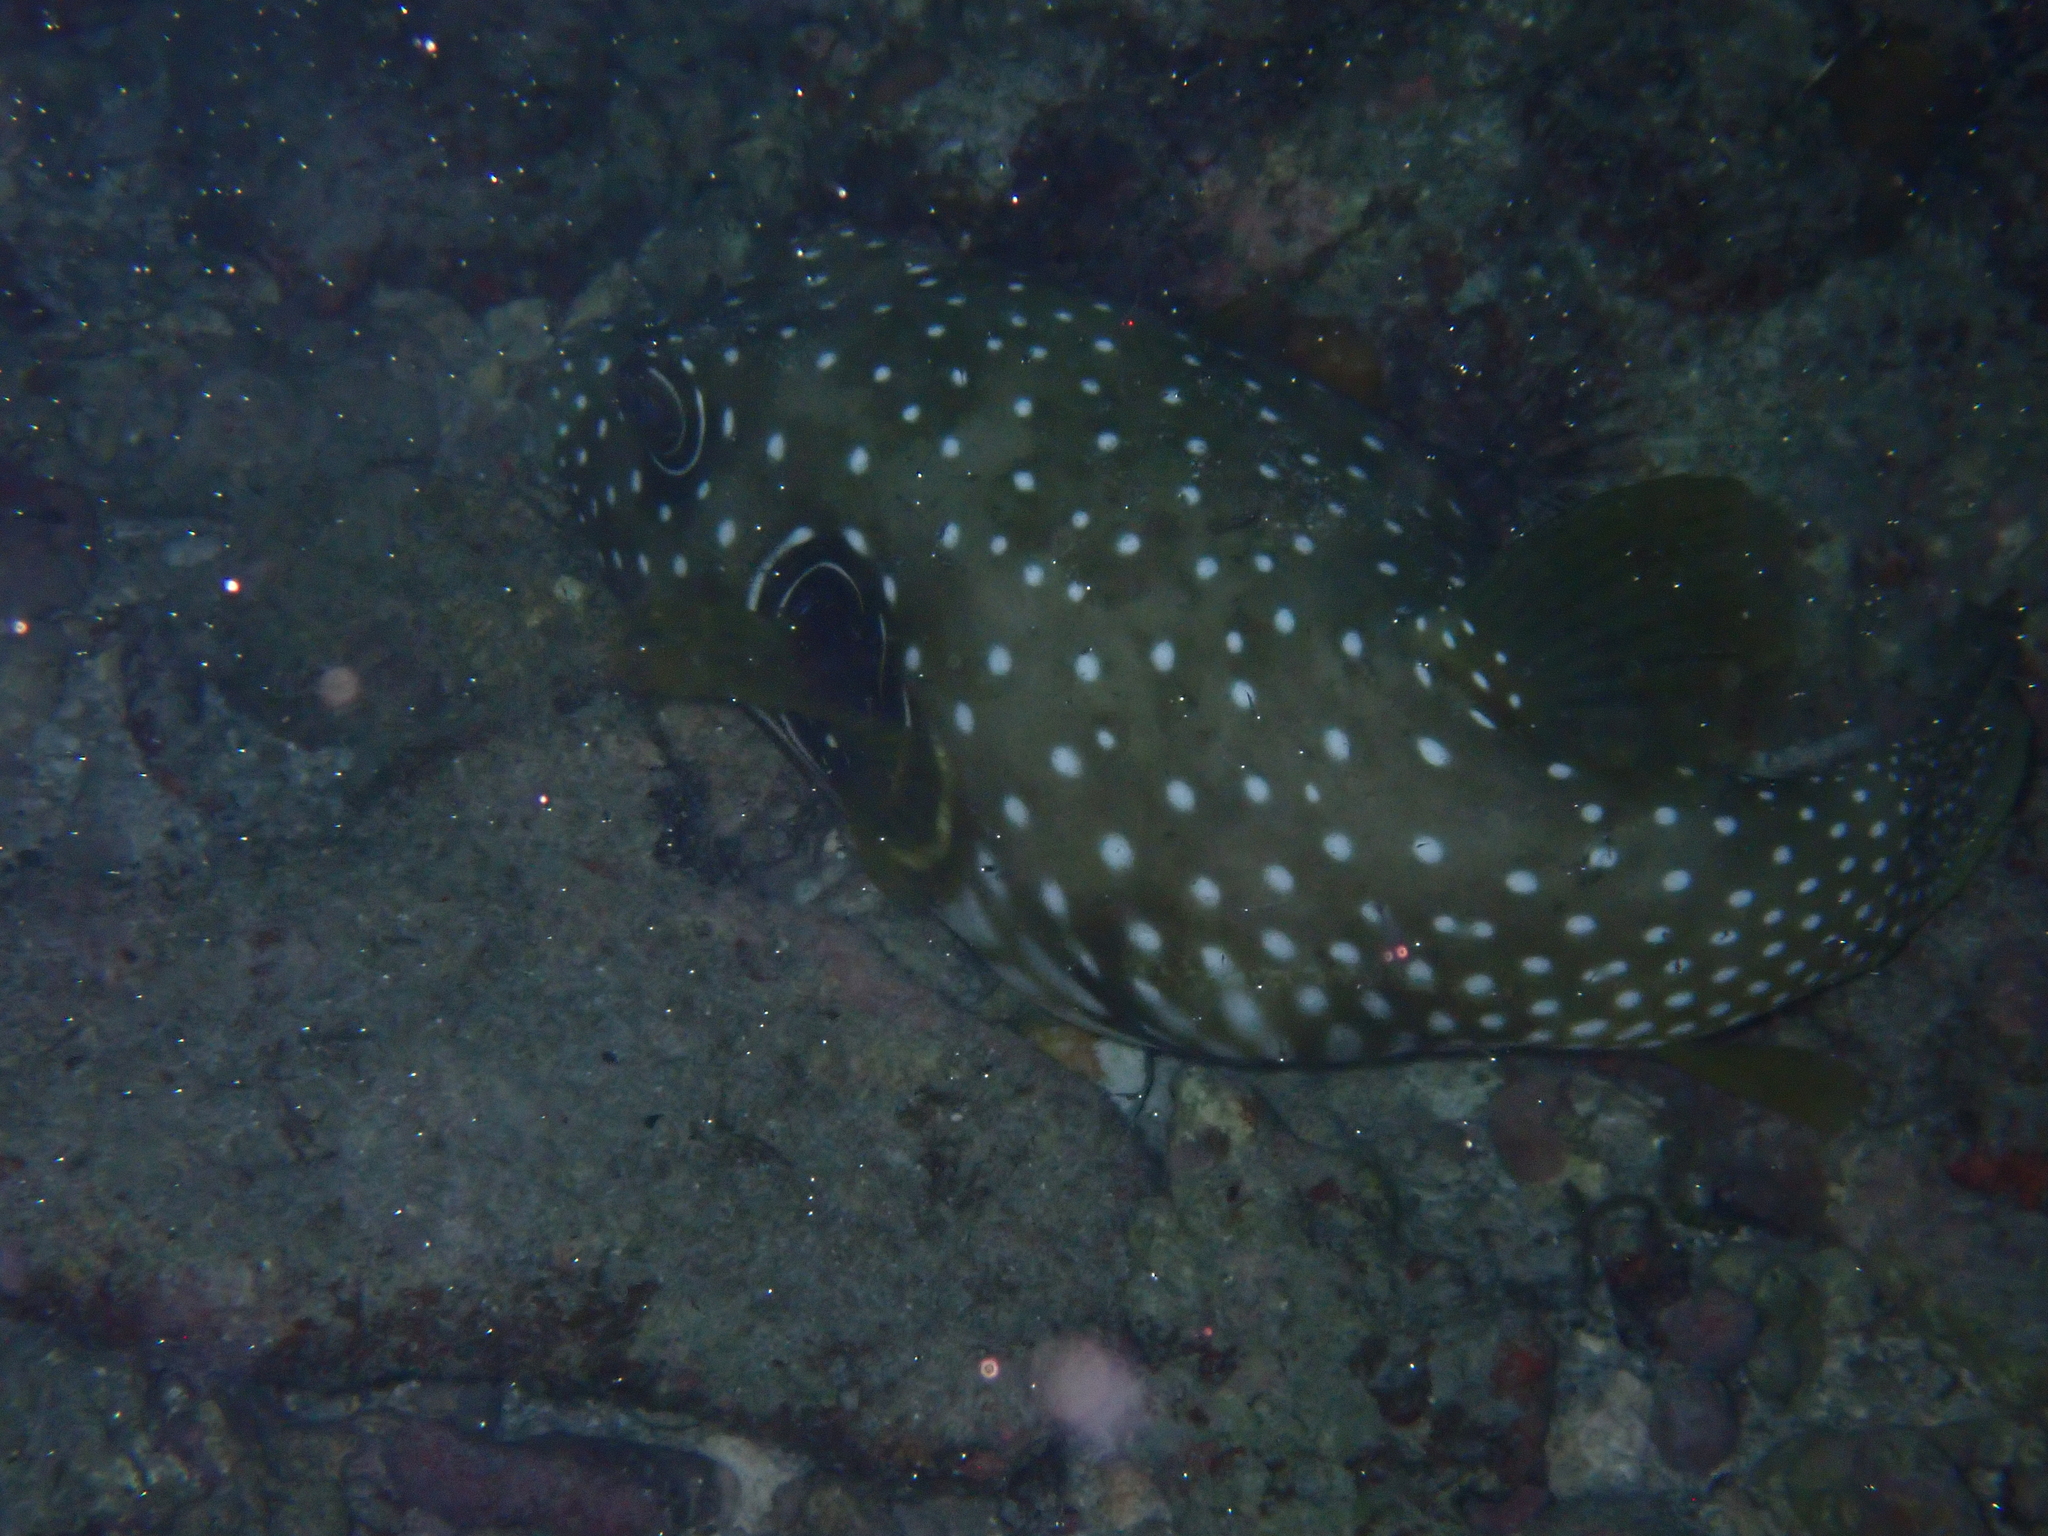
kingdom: Animalia
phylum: Chordata
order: Tetraodontiformes
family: Tetraodontidae
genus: Arothron
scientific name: Arothron hispidus
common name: Stripebelly puffer
